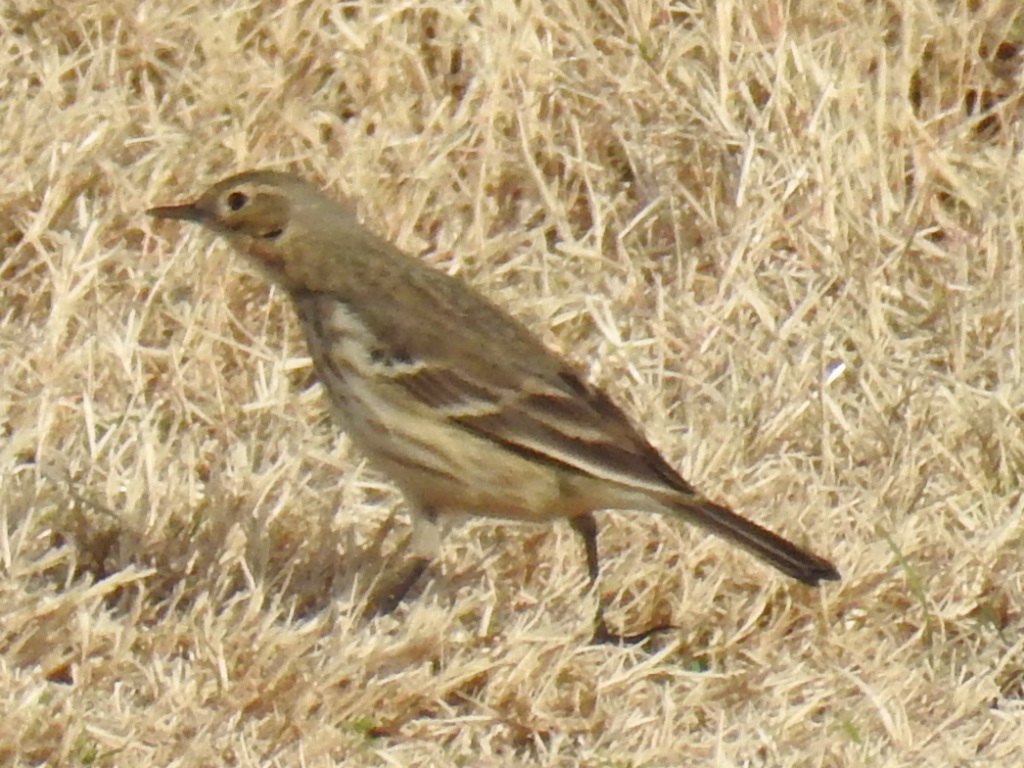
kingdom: Animalia
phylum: Chordata
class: Aves
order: Passeriformes
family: Motacillidae
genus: Anthus
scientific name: Anthus rubescens
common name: Buff-bellied pipit
